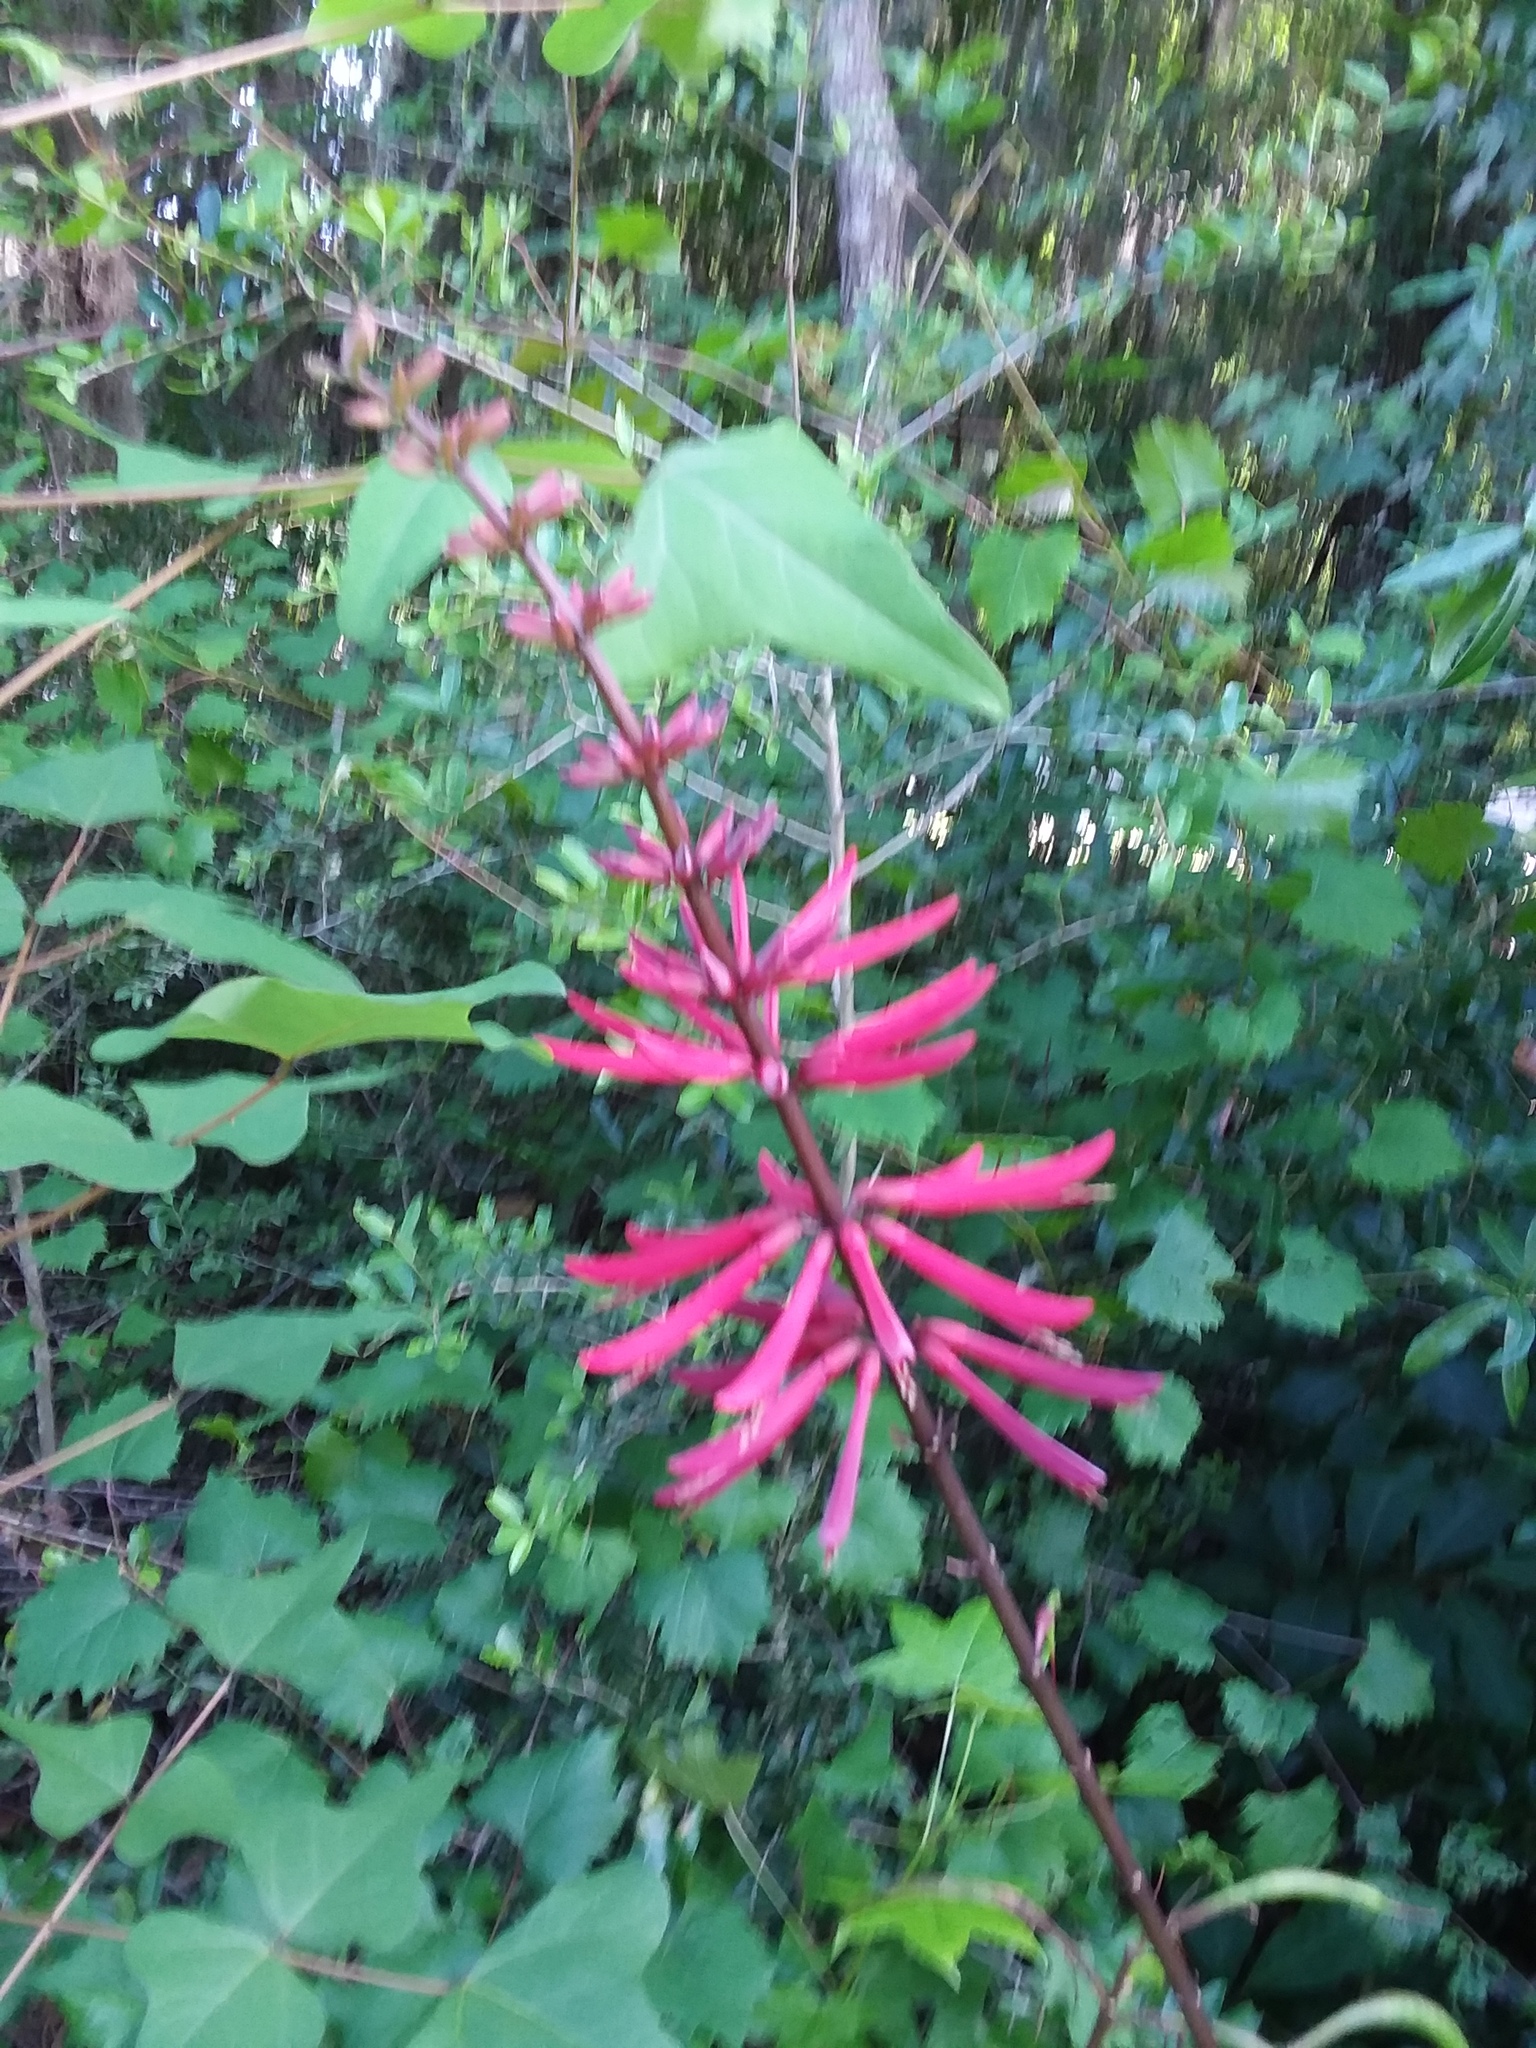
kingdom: Plantae
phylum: Tracheophyta
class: Magnoliopsida
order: Fabales
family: Fabaceae
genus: Erythrina
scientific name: Erythrina herbacea
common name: Coral-bean
